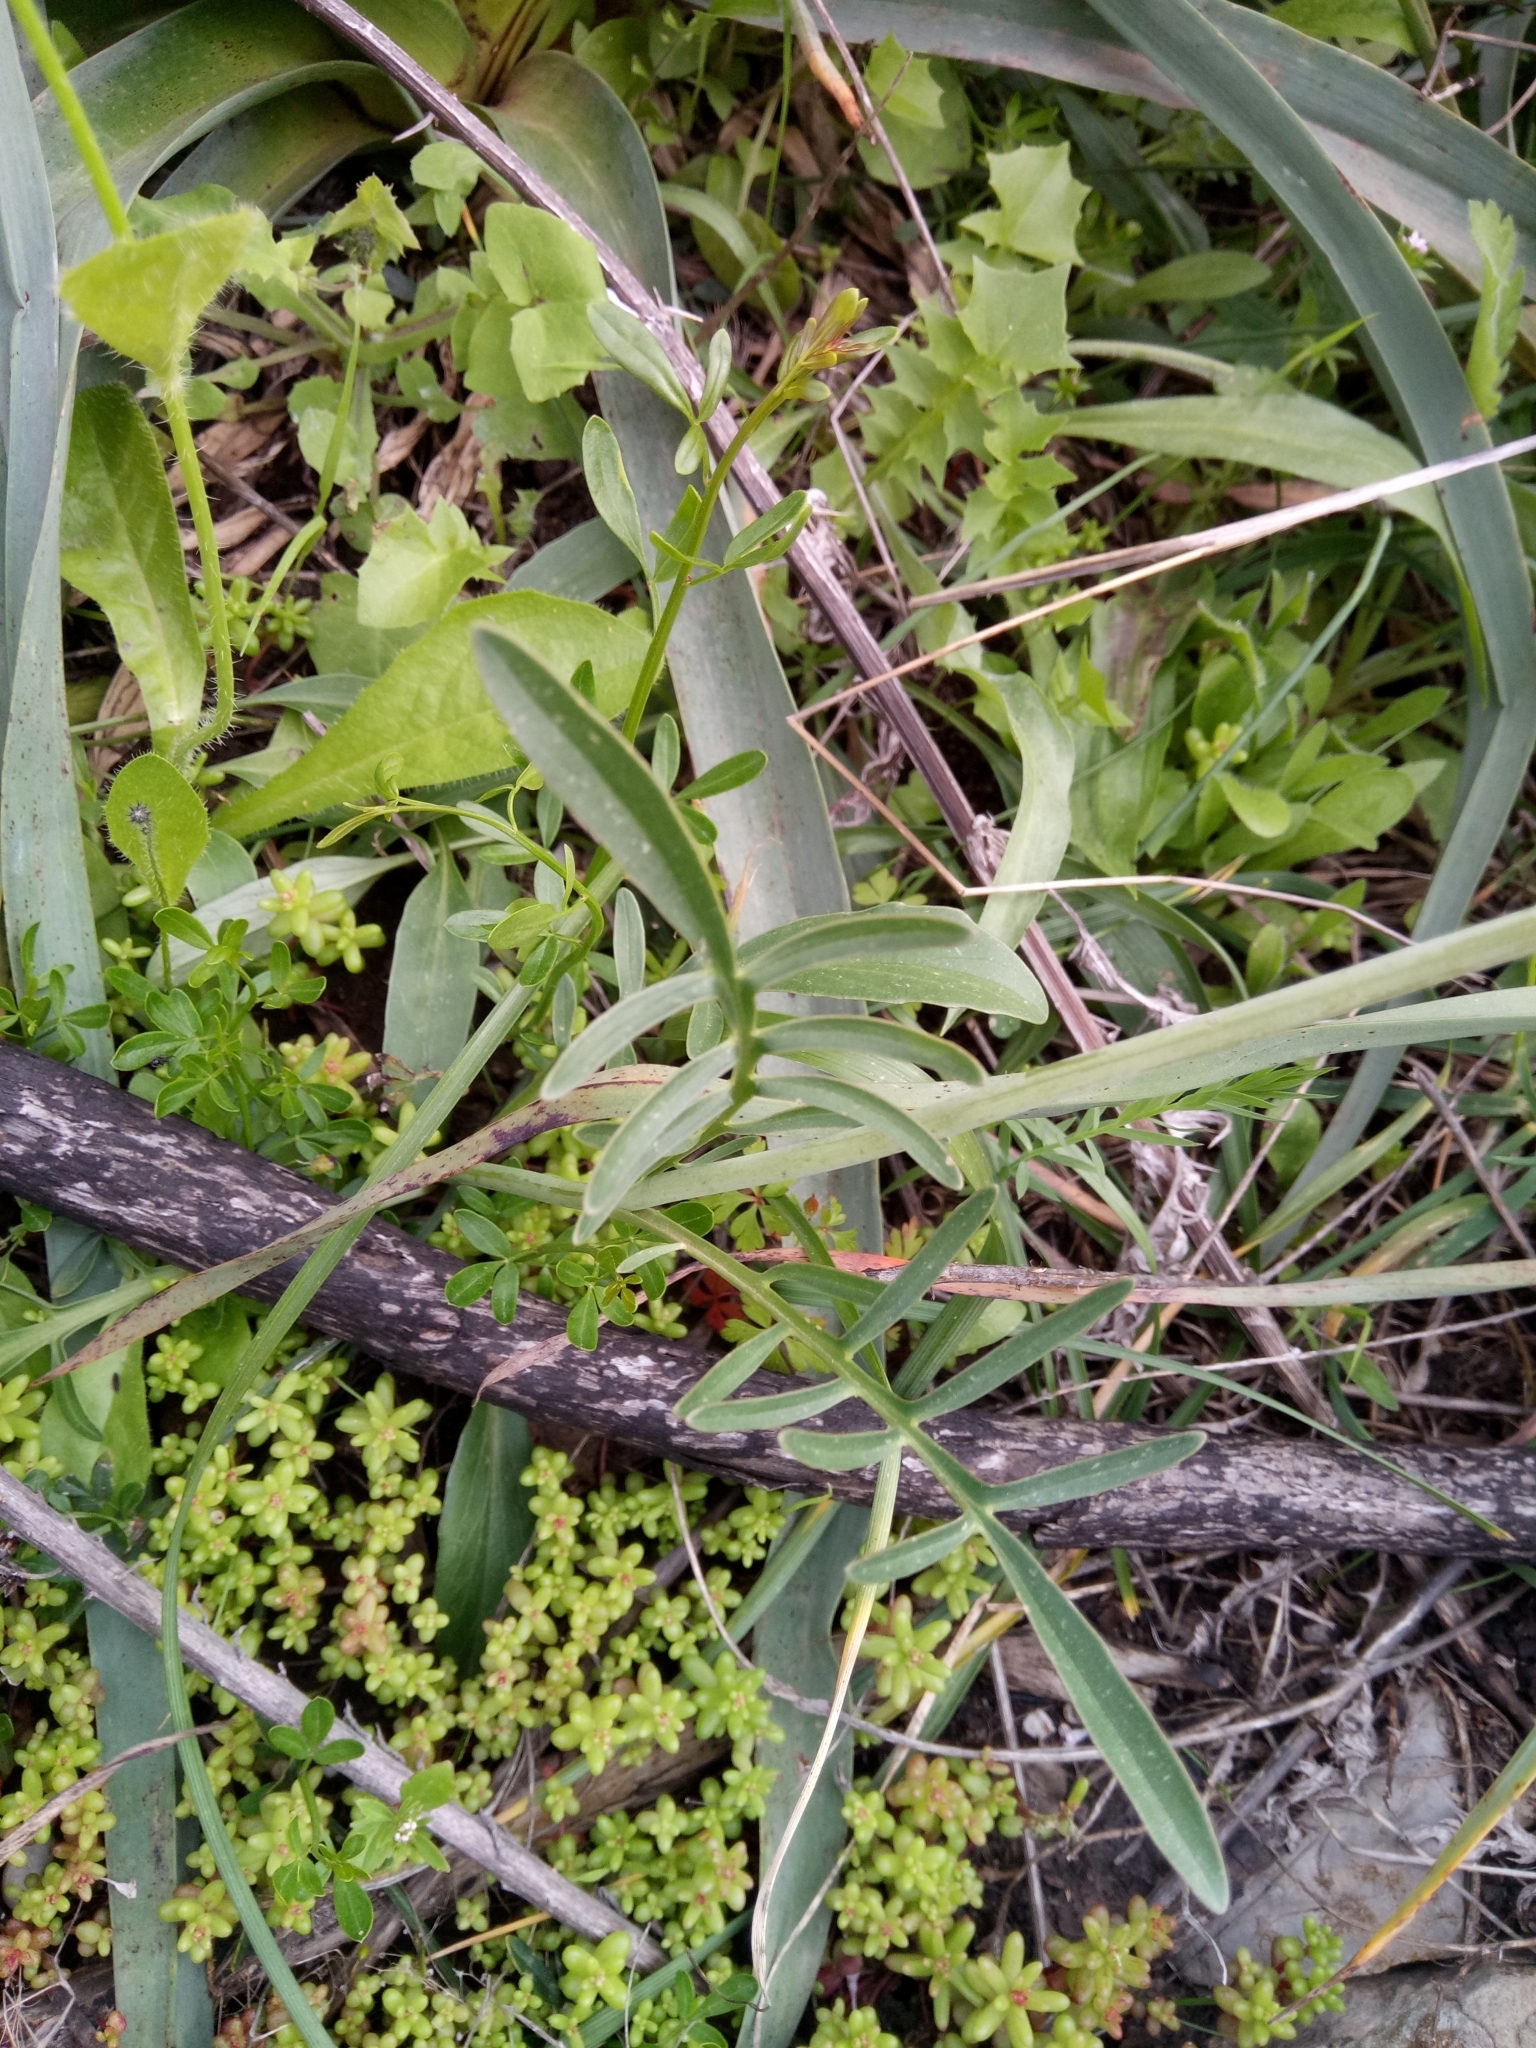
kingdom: Plantae
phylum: Tracheophyta
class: Magnoliopsida
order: Dipsacales
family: Caprifoliaceae
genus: Valeriana
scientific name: Valeriana tuberosa
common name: Tuberous valerian
